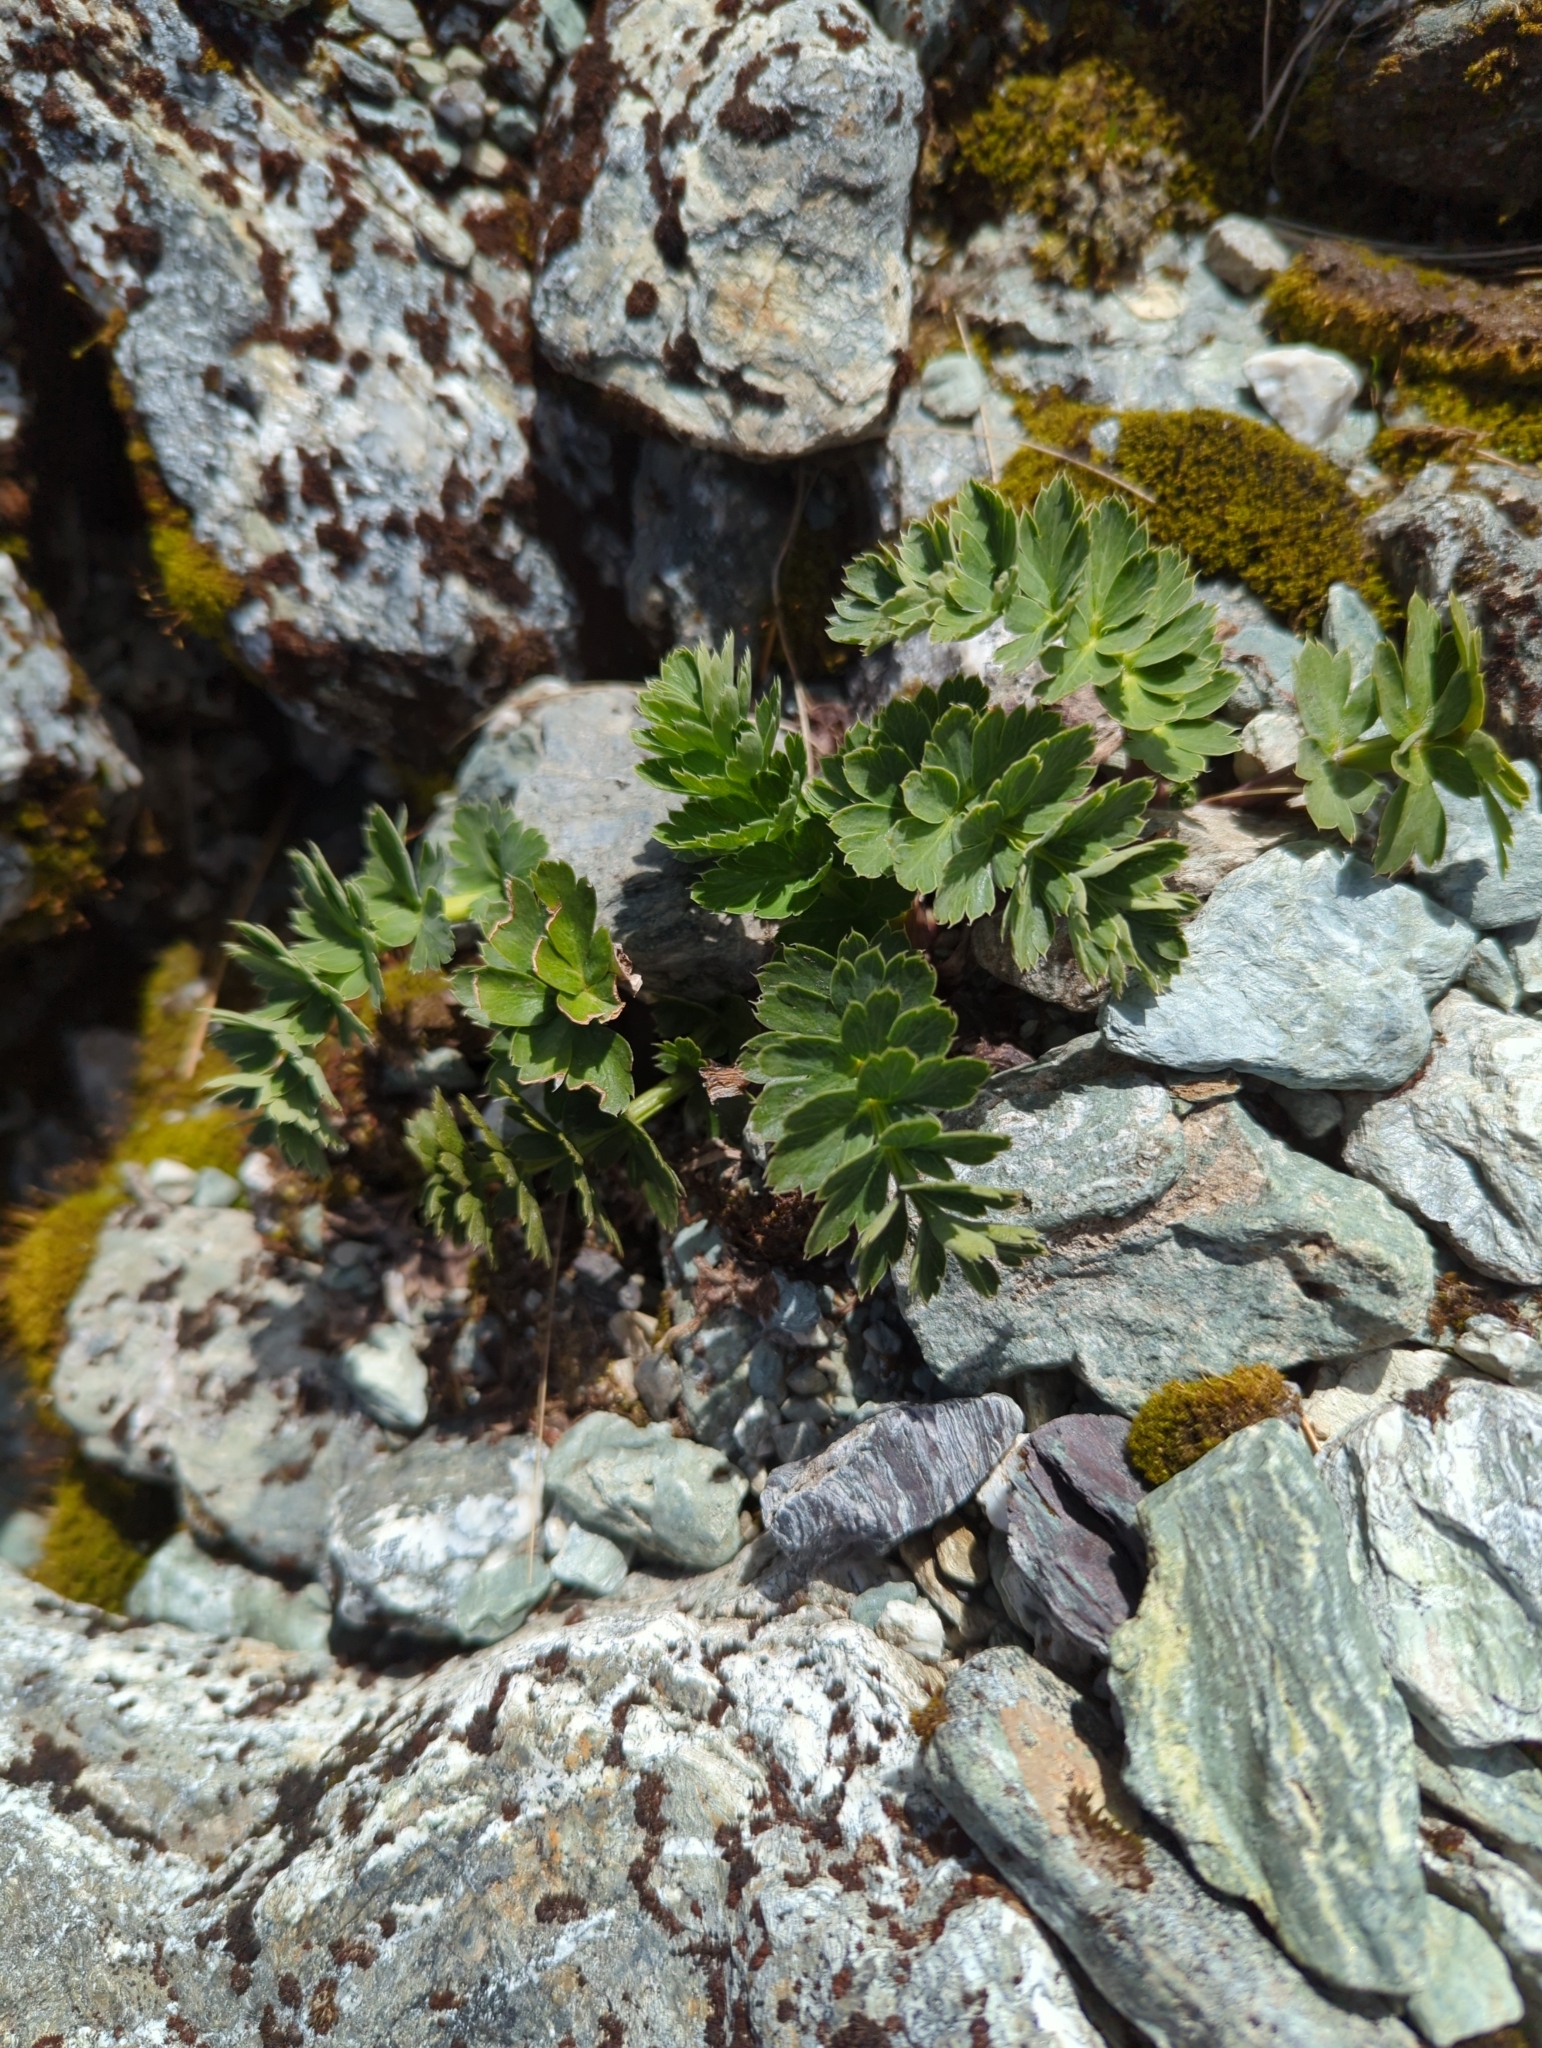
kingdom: Plantae
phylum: Tracheophyta
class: Magnoliopsida
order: Apiales
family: Apiaceae
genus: Anisotome
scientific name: Anisotome pilifera
